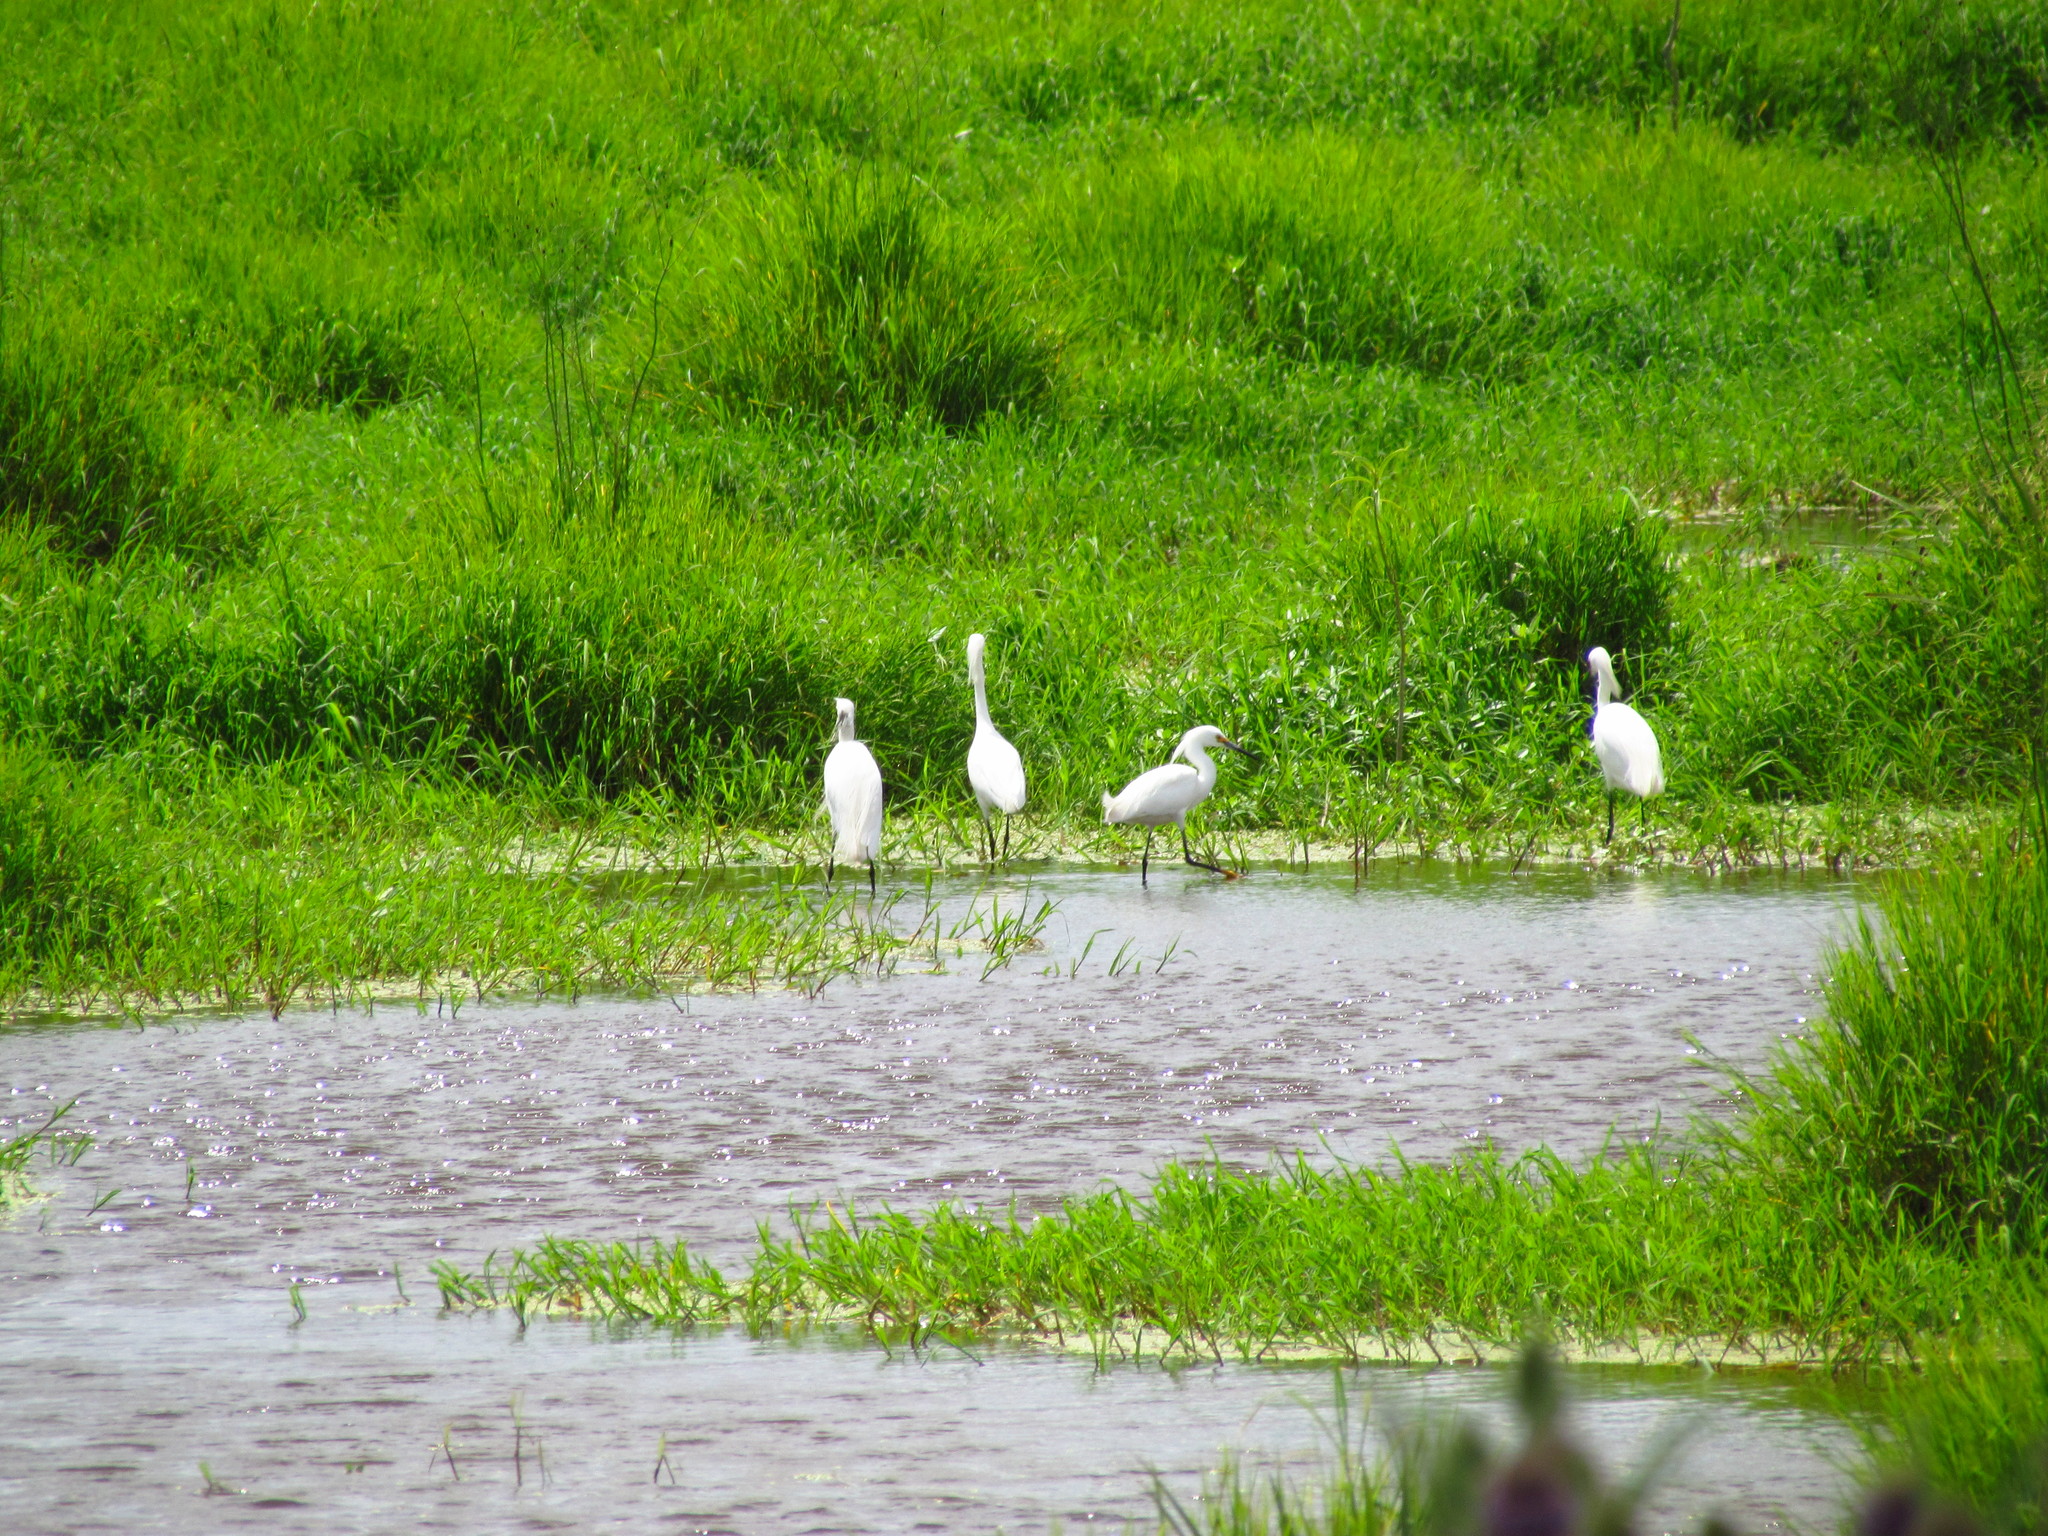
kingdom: Animalia
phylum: Chordata
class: Aves
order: Pelecaniformes
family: Ardeidae
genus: Egretta
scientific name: Egretta thula
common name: Snowy egret
